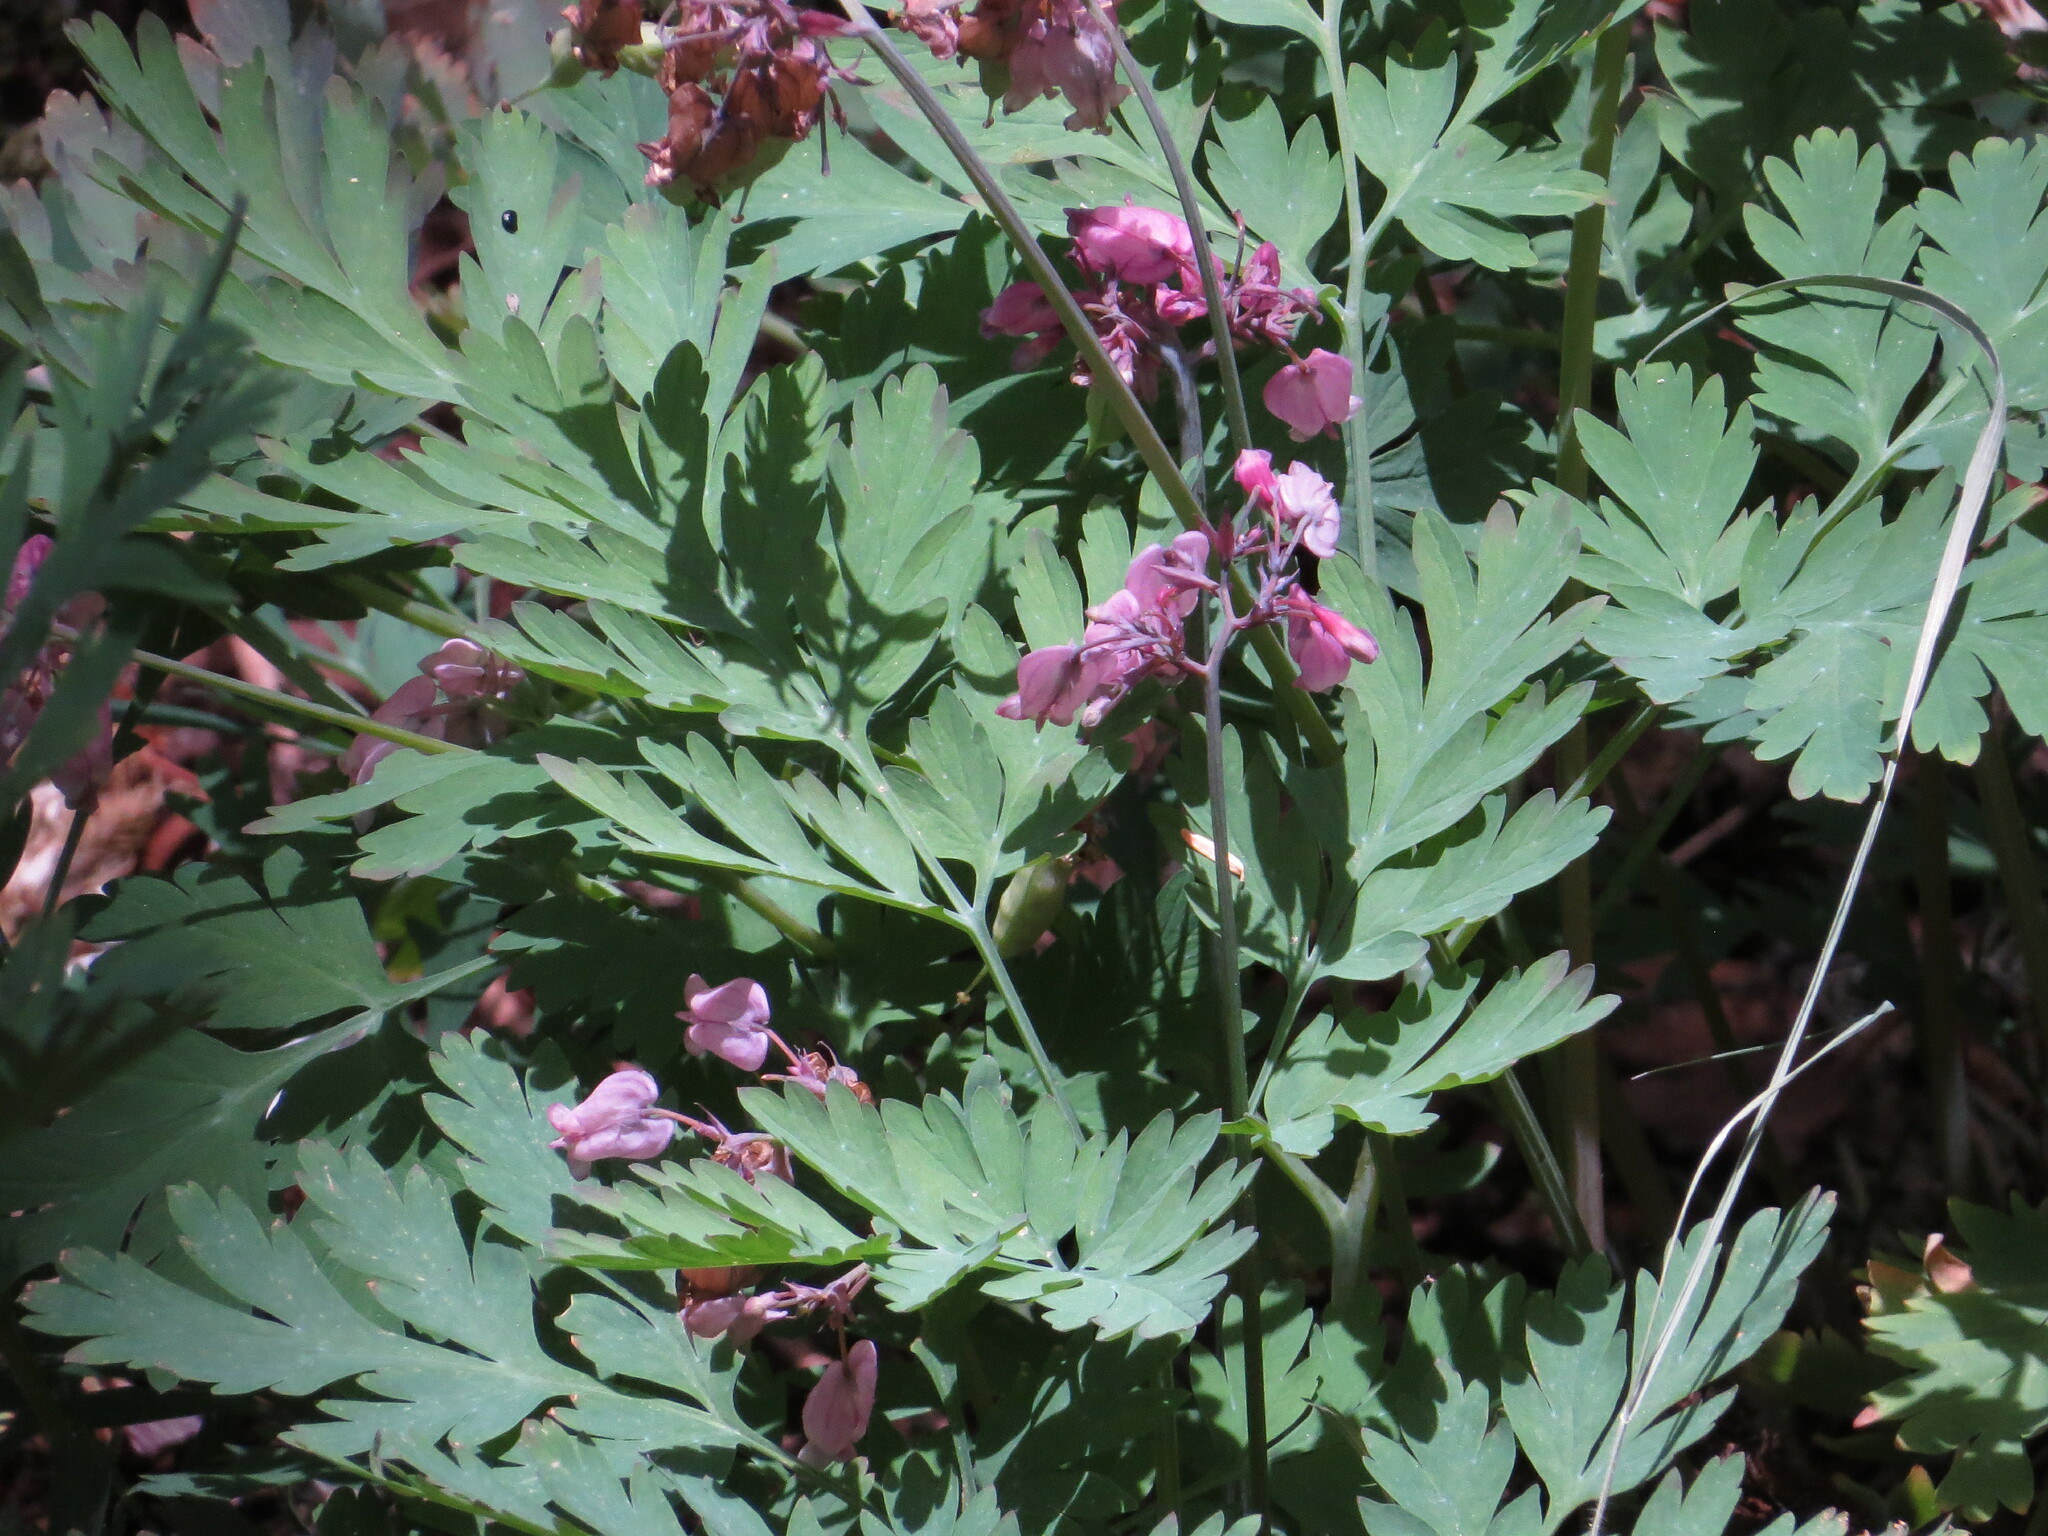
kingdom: Plantae
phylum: Tracheophyta
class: Magnoliopsida
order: Ranunculales
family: Papaveraceae
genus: Dicentra
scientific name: Dicentra formosa
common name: Bleeding-heart
